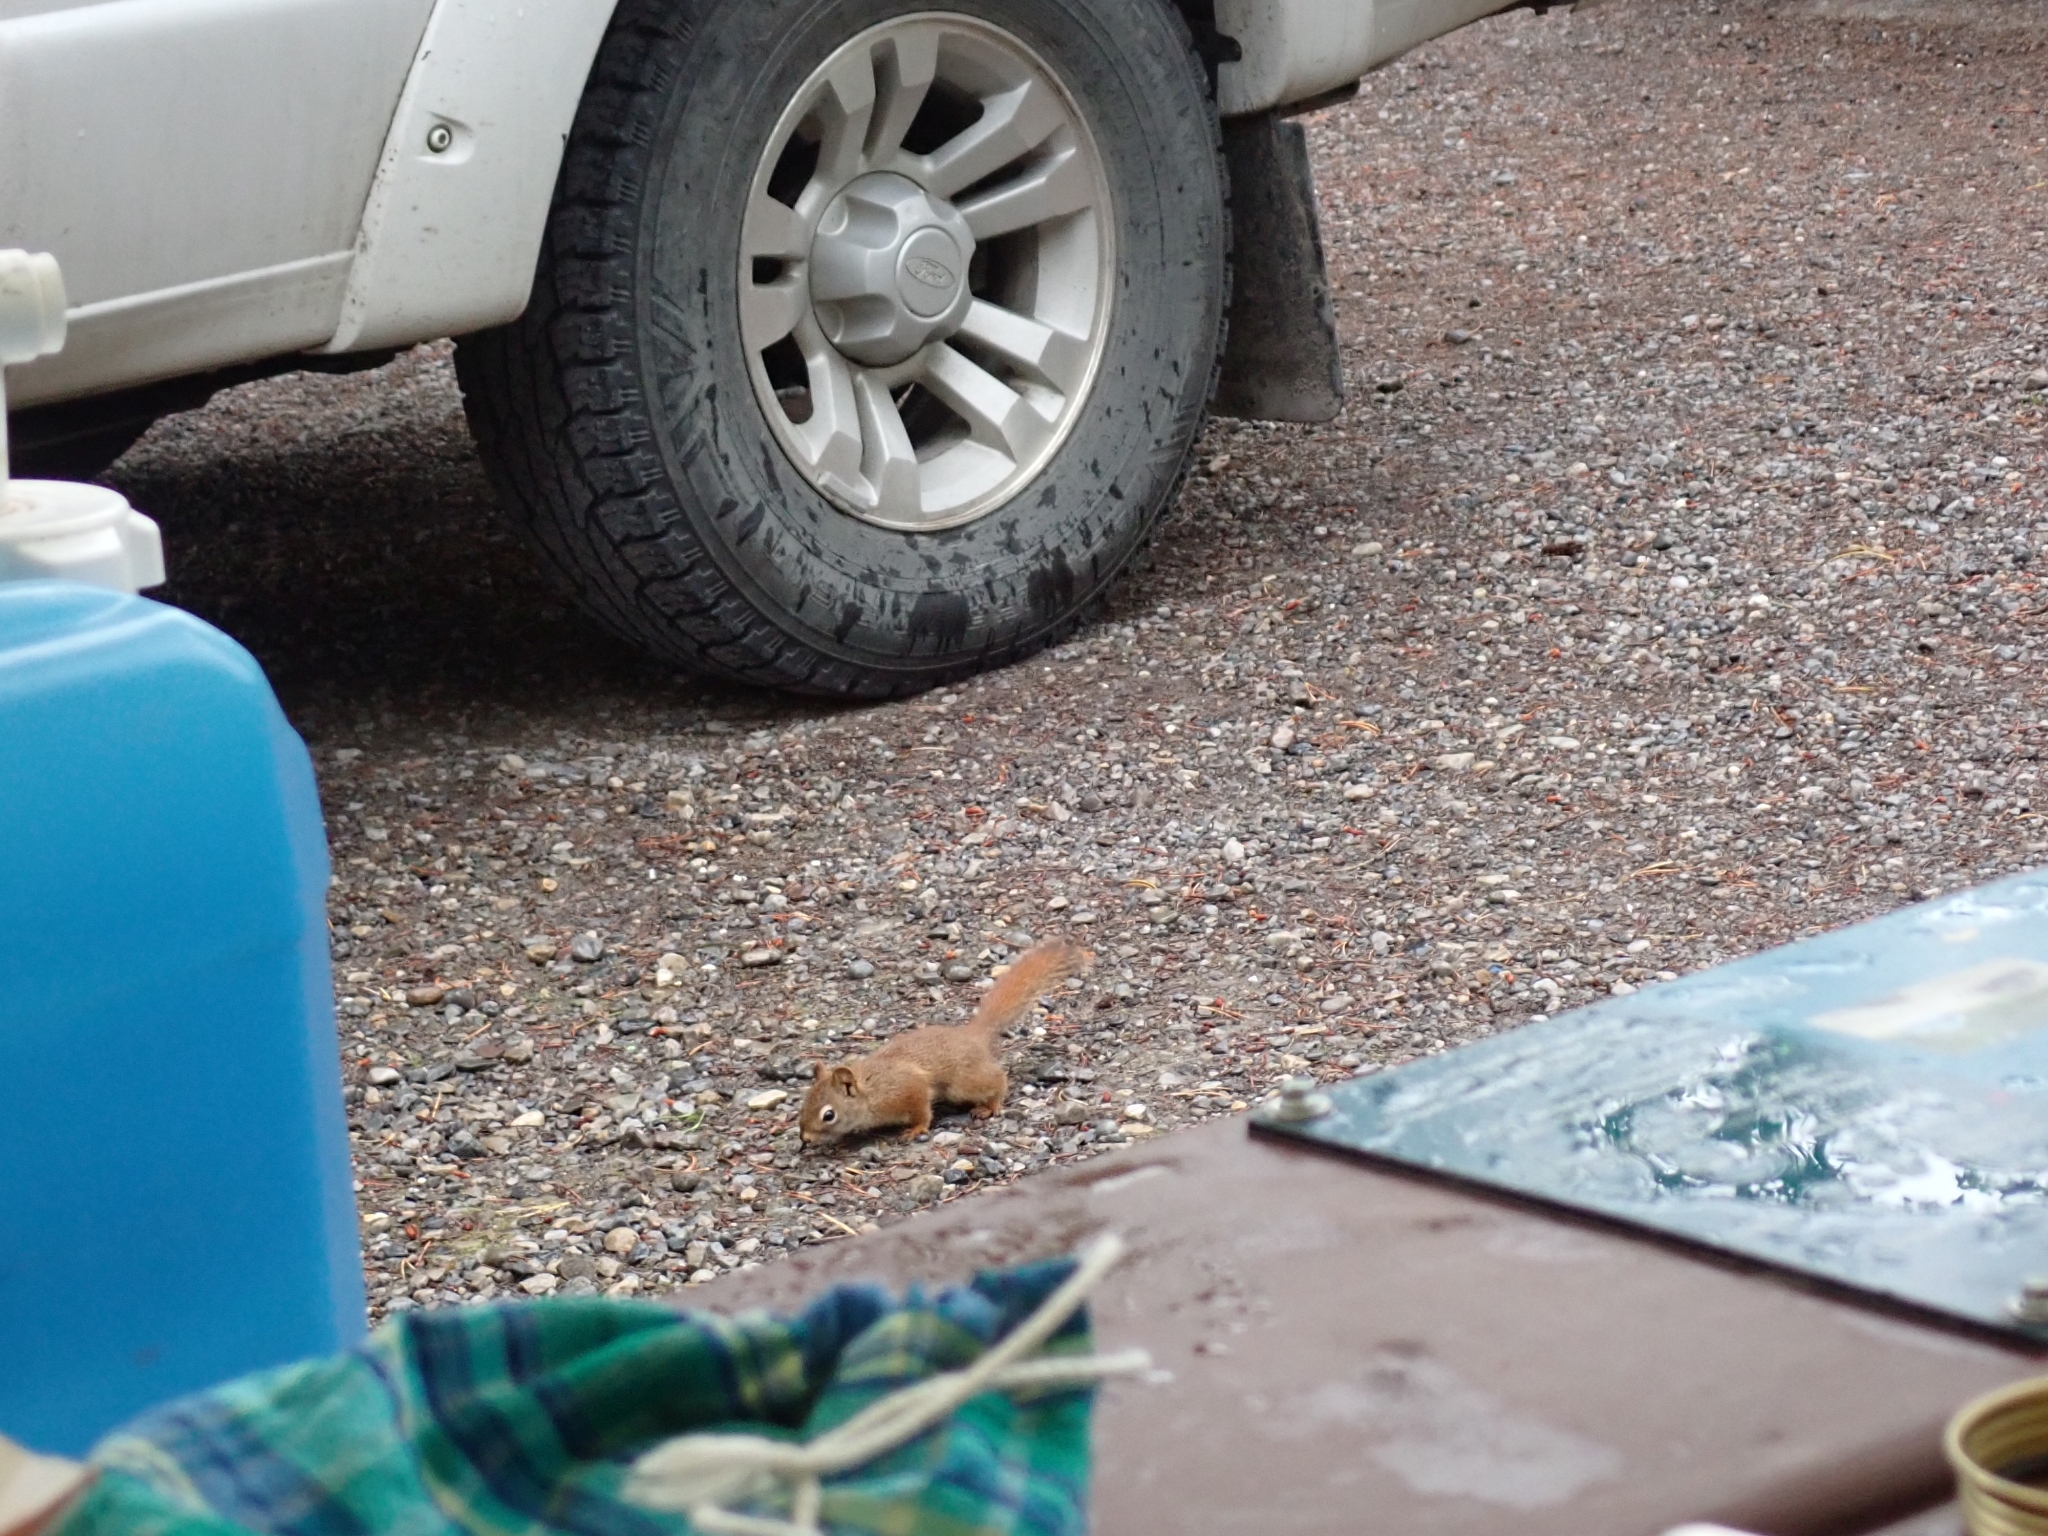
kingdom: Animalia
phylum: Chordata
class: Mammalia
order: Rodentia
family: Sciuridae
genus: Tamiasciurus
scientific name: Tamiasciurus hudsonicus
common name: Red squirrel
